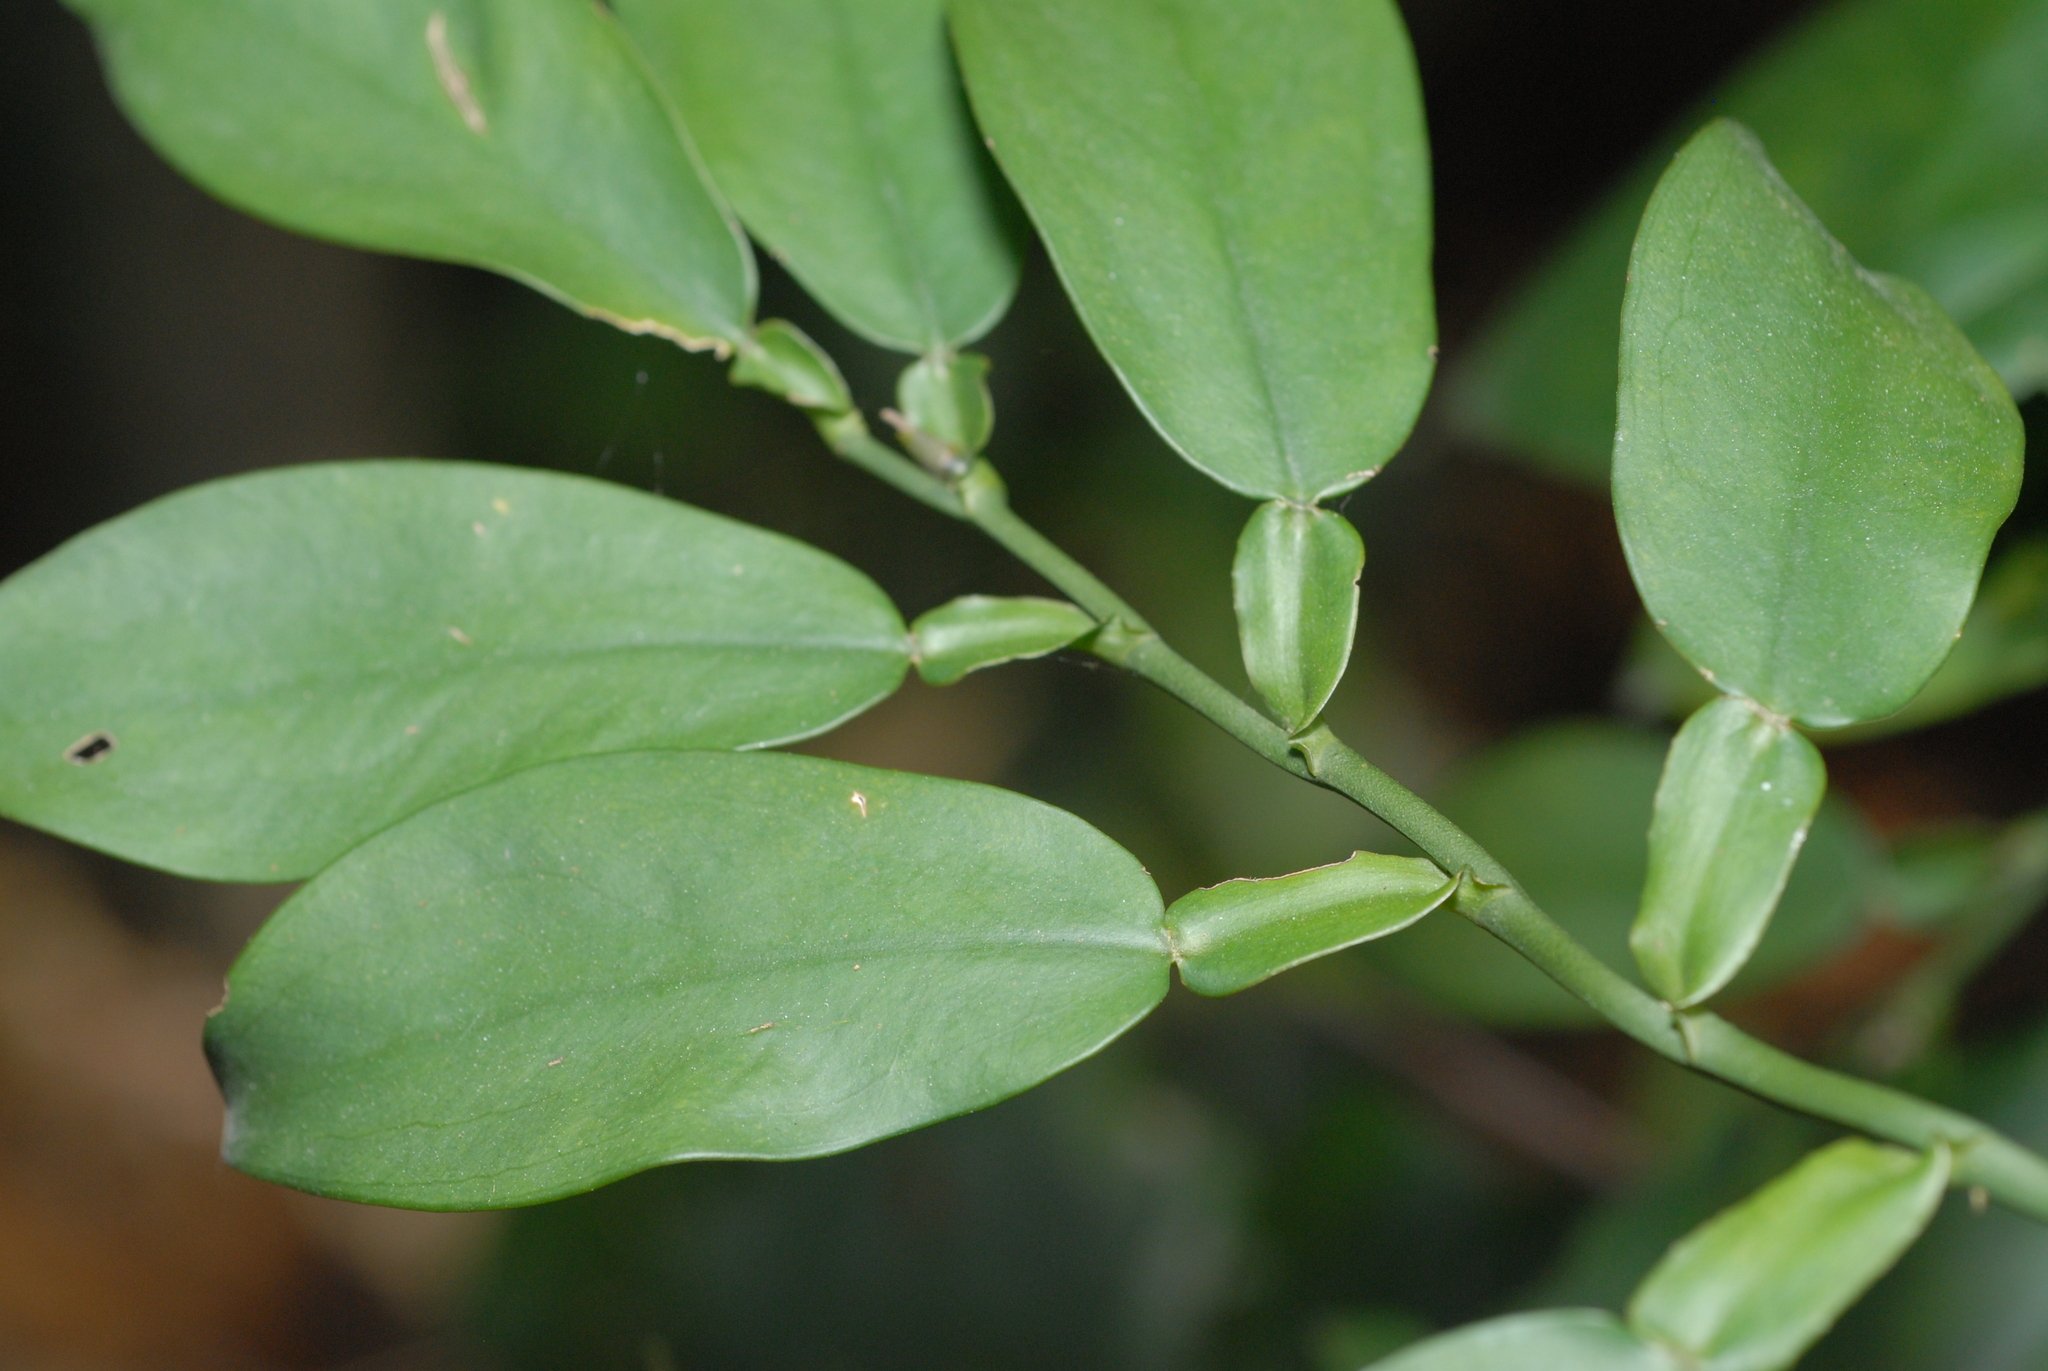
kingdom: Plantae
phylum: Tracheophyta
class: Liliopsida
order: Alismatales
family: Araceae
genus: Pothos
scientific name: Pothos chinensis
